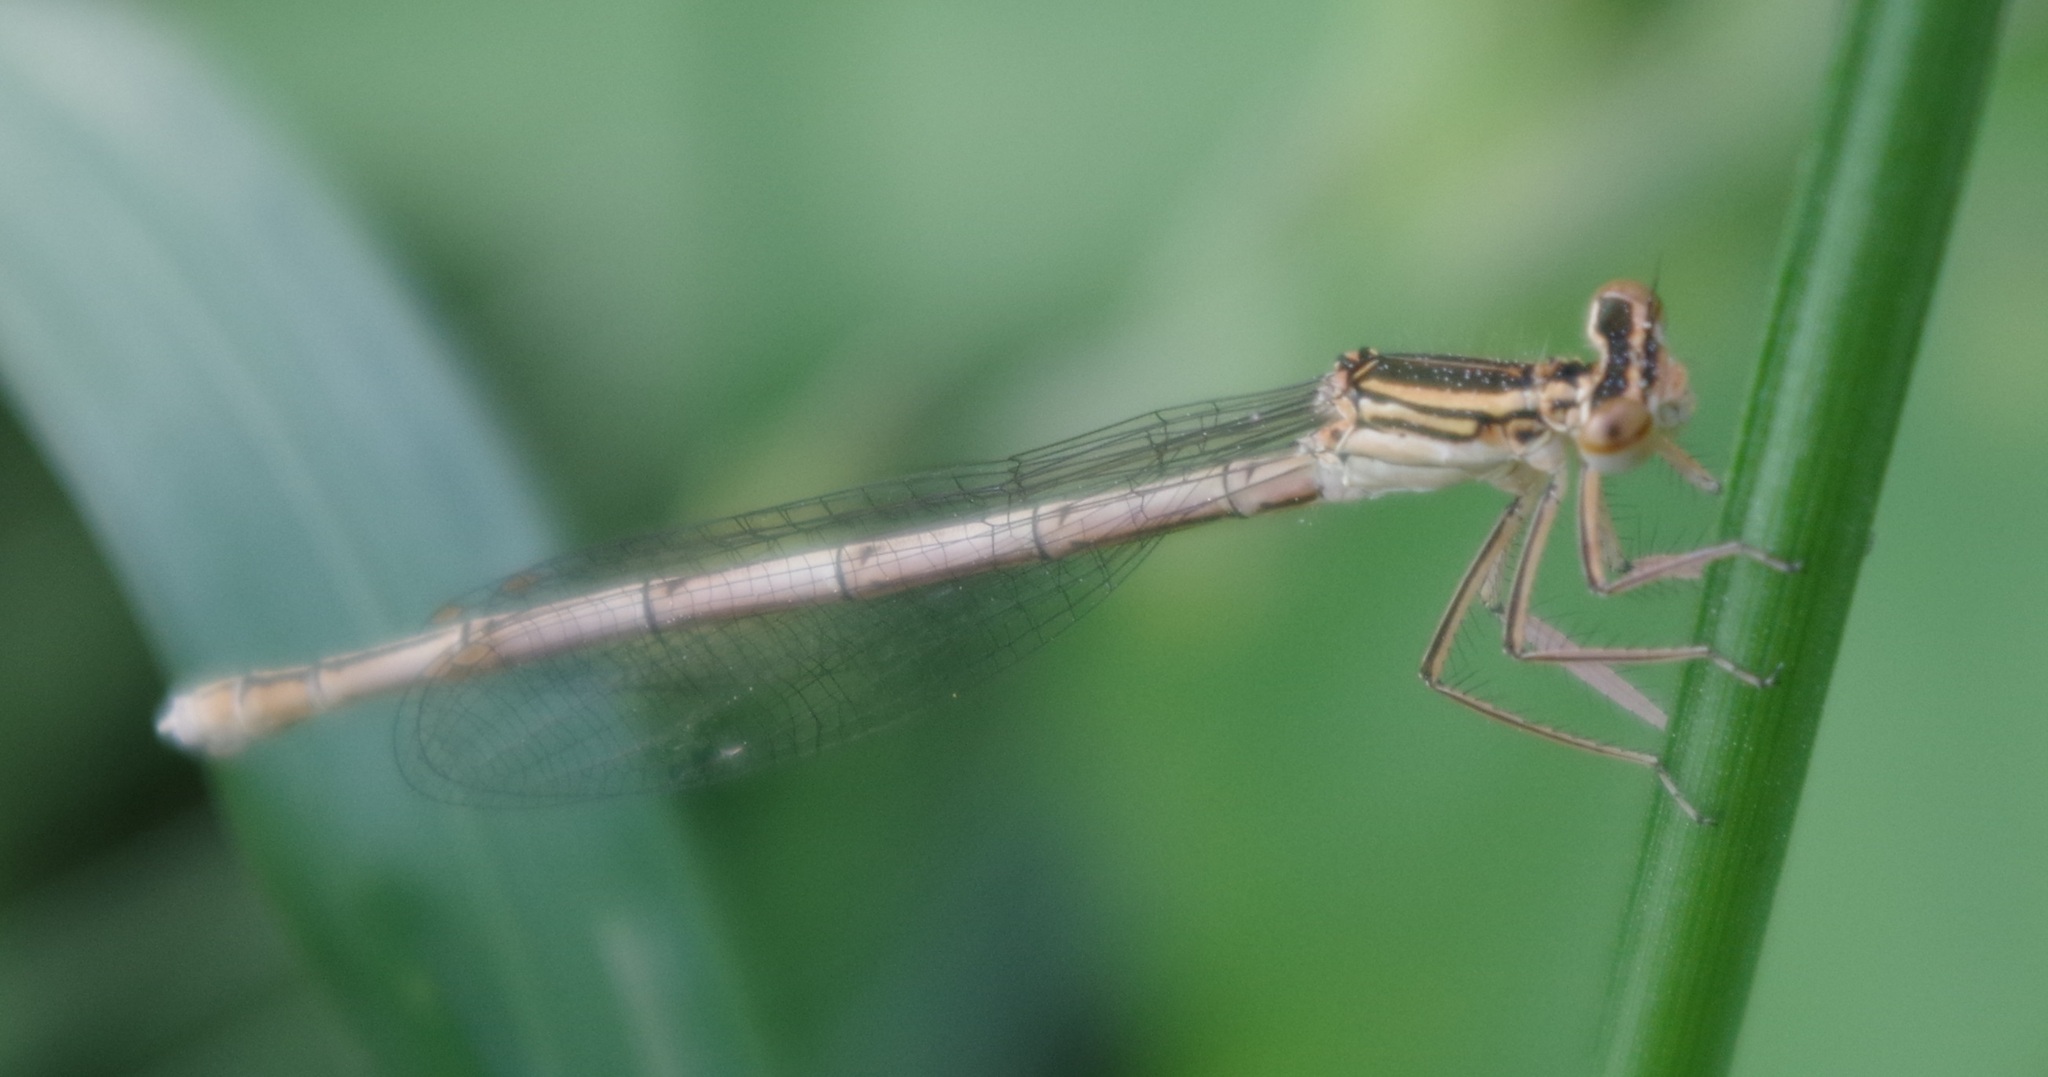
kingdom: Animalia
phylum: Arthropoda
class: Insecta
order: Odonata
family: Platycnemididae
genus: Platycnemis
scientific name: Platycnemis pennipes
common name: White-legged damselfly
